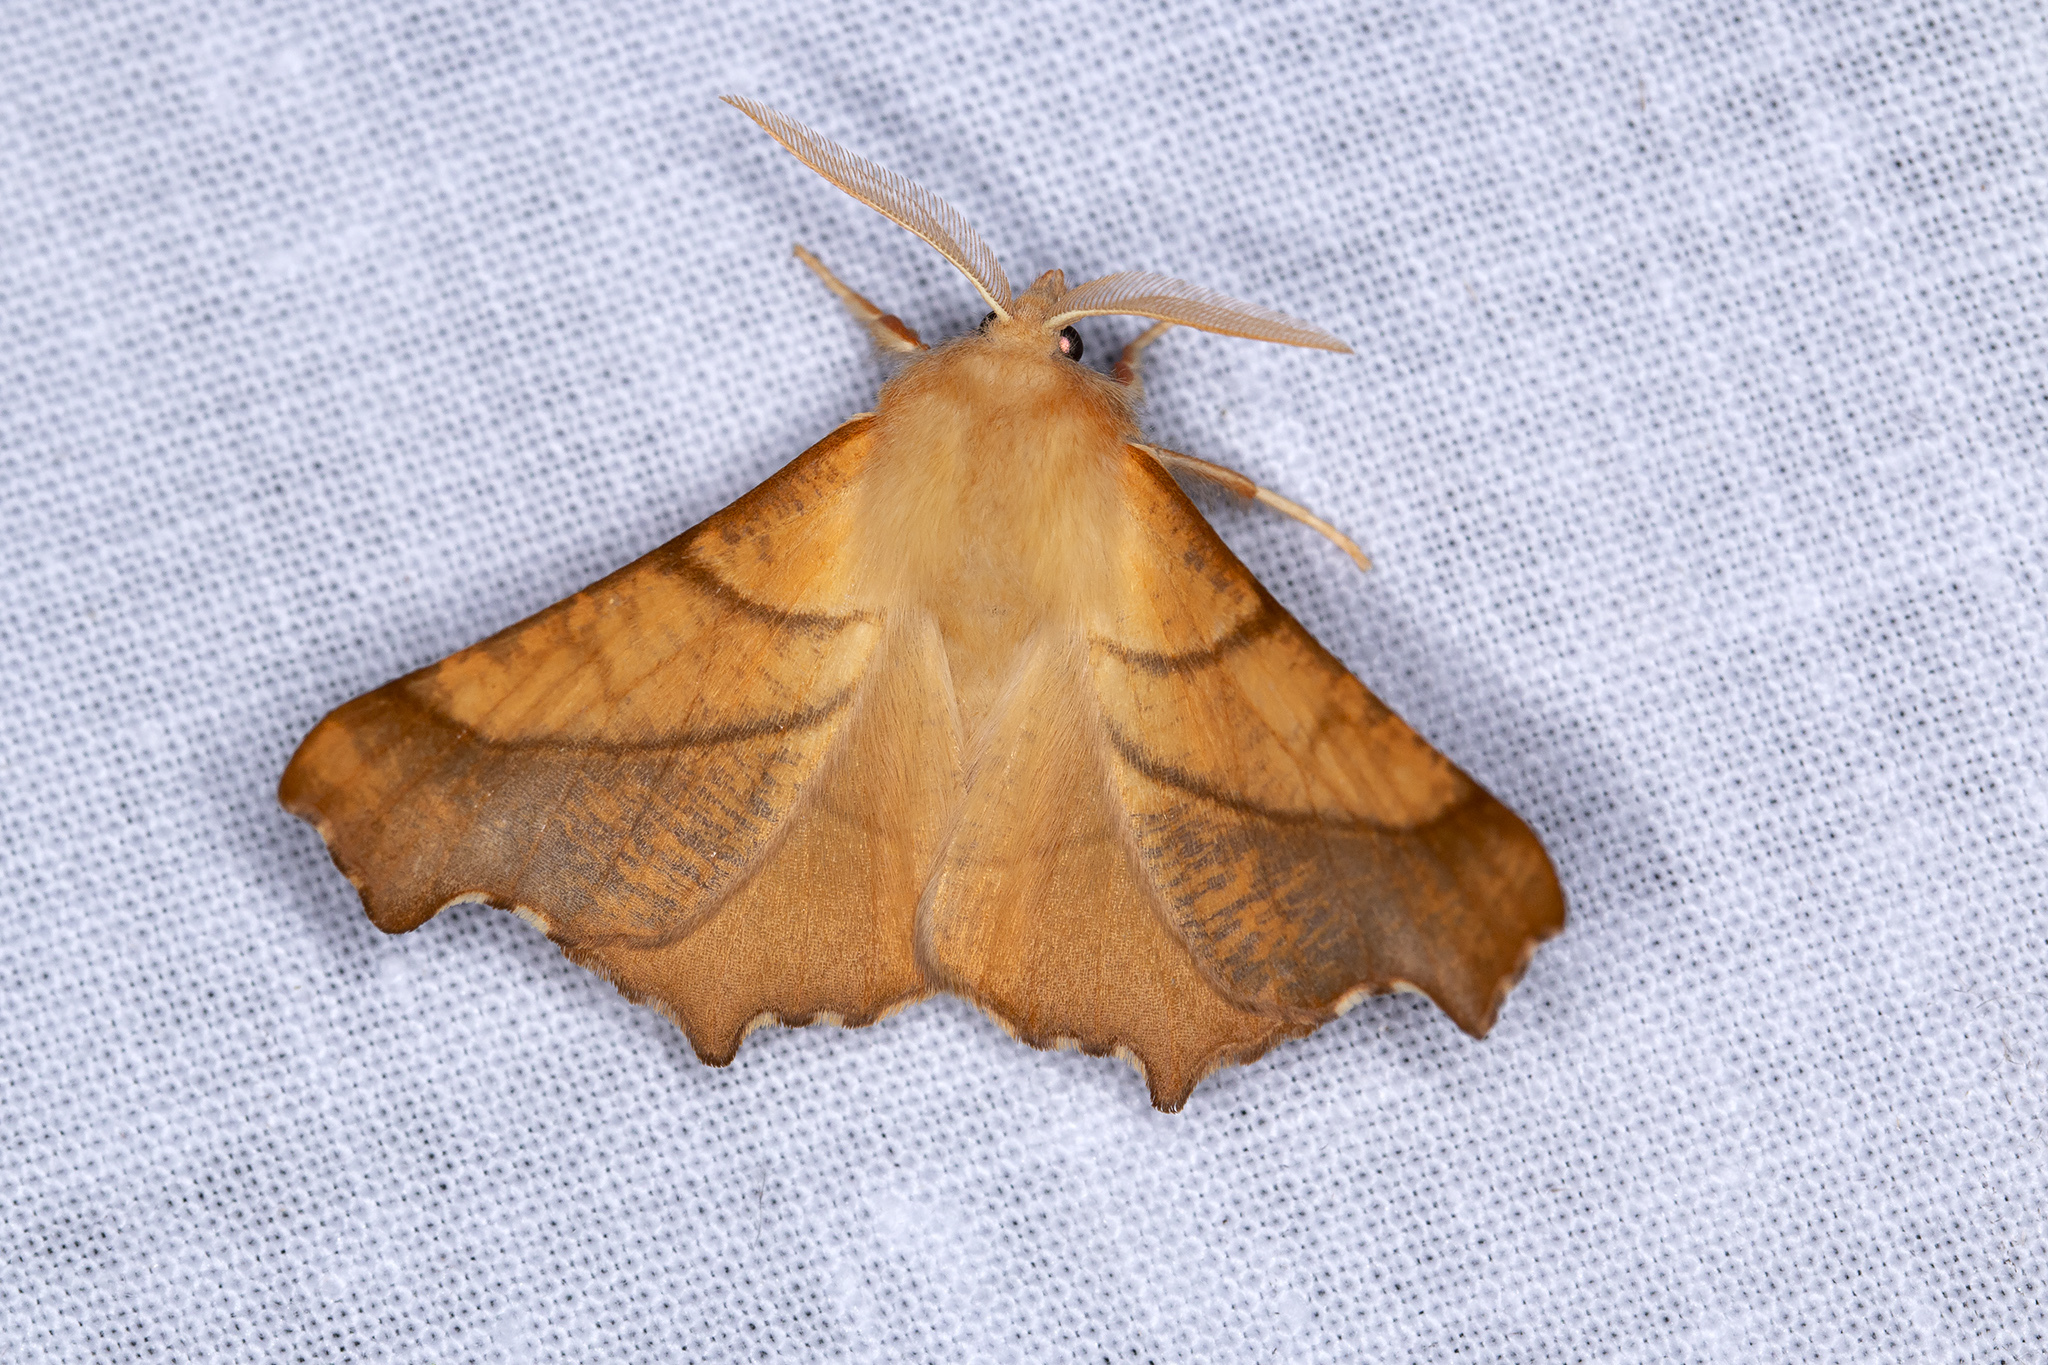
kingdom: Animalia
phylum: Arthropoda
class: Insecta
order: Lepidoptera
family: Geometridae
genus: Ennomos
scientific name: Ennomos fuscantaria
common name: Dusky thorn
